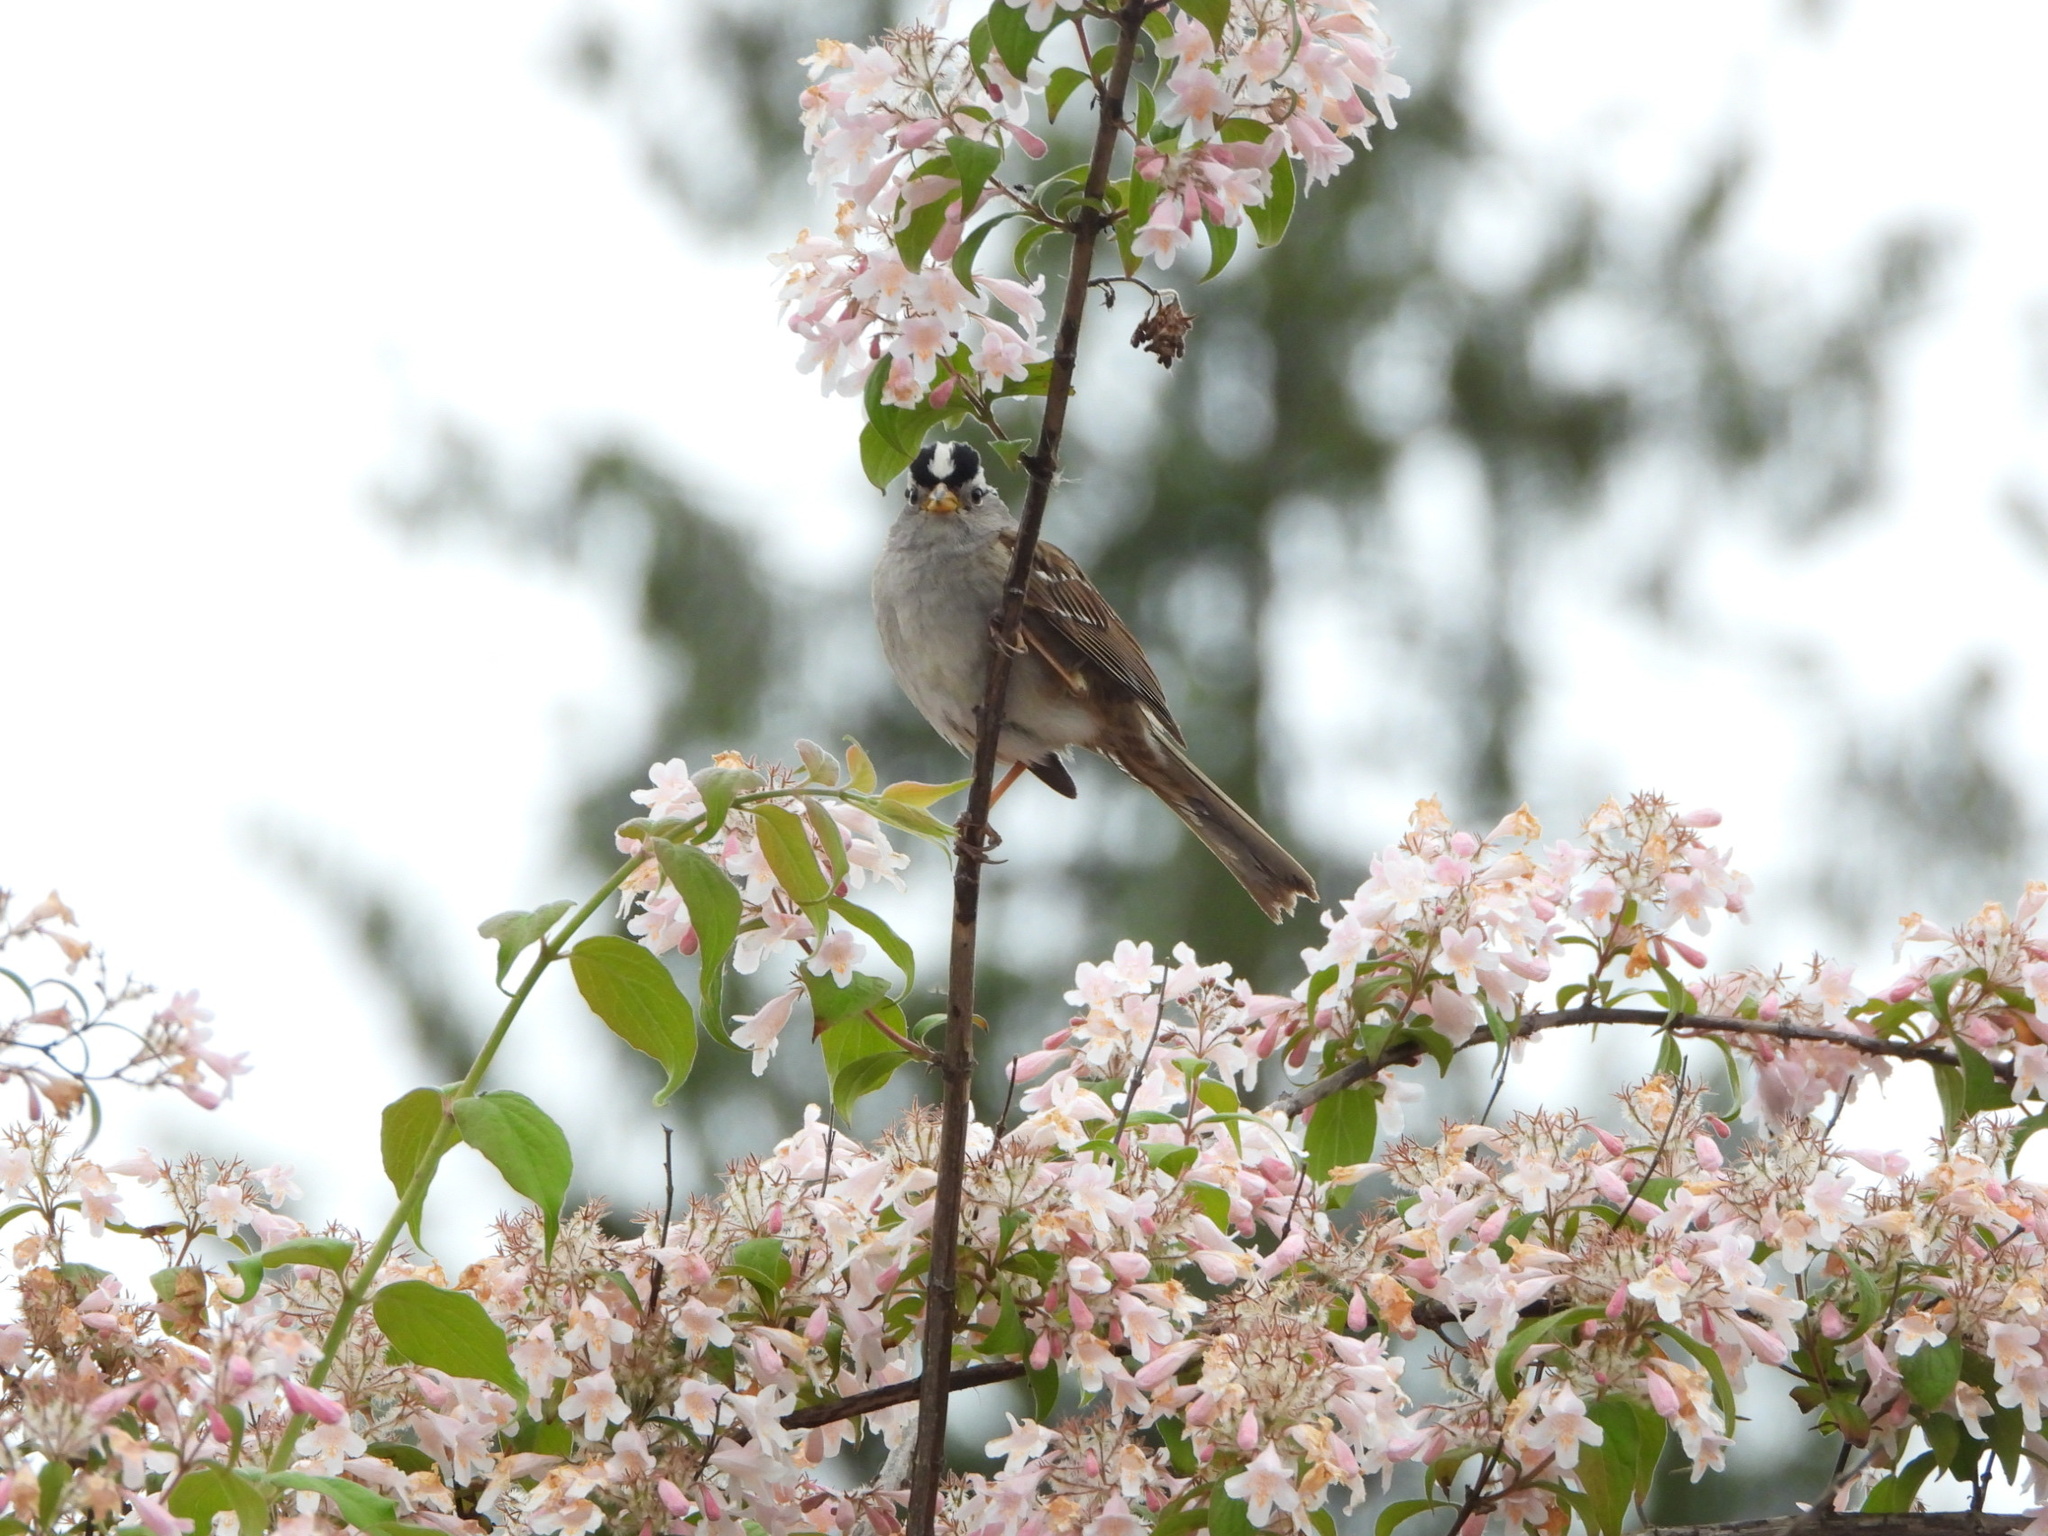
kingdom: Animalia
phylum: Chordata
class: Aves
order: Passeriformes
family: Passerellidae
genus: Zonotrichia
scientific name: Zonotrichia leucophrys
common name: White-crowned sparrow
